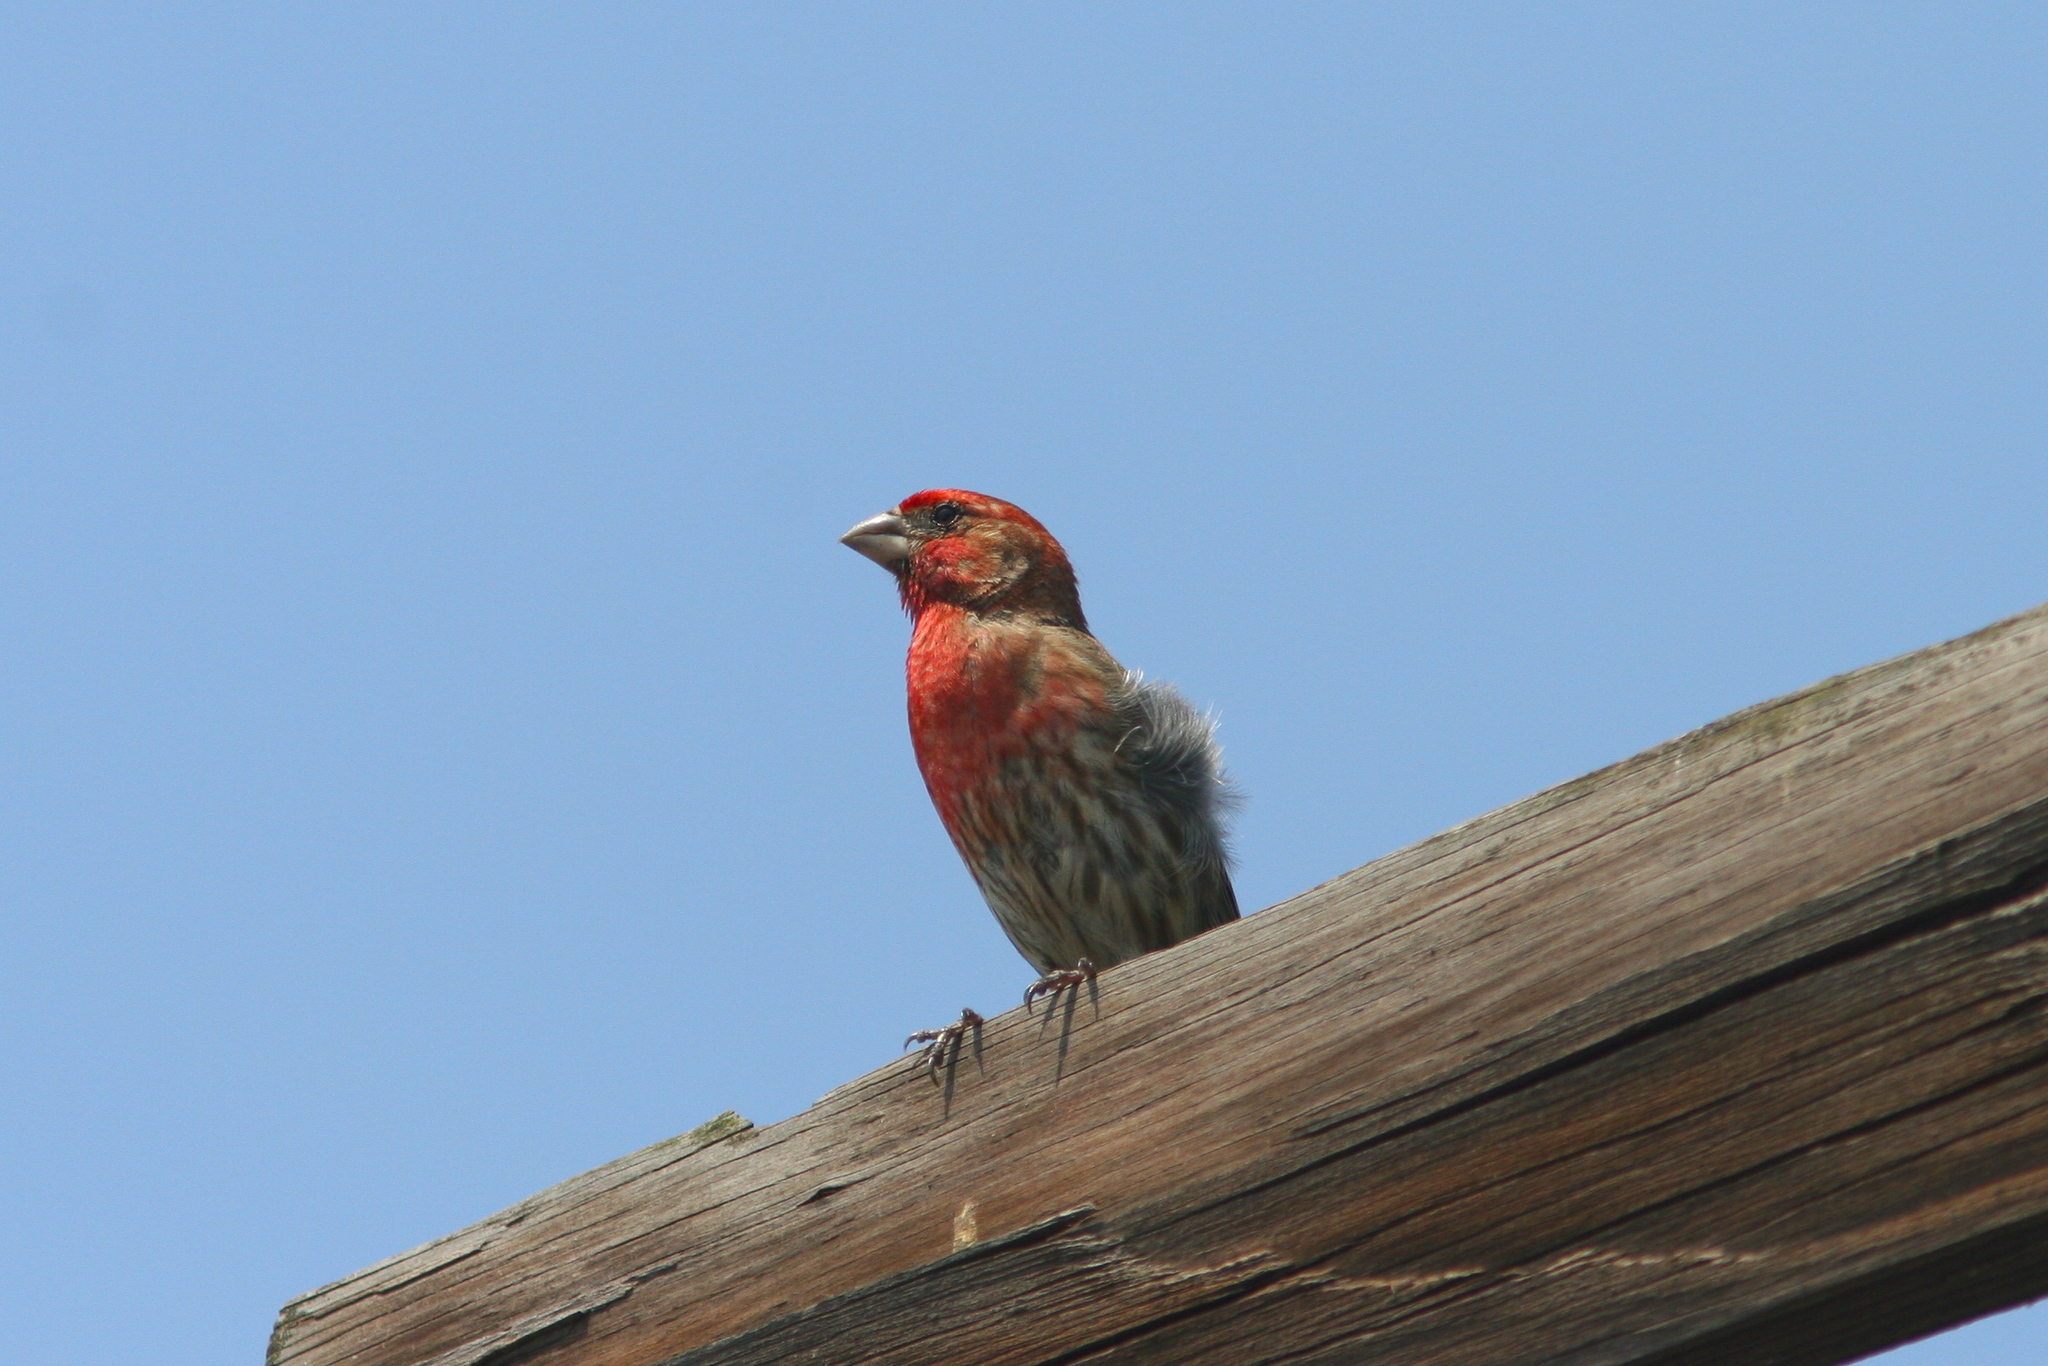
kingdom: Animalia
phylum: Chordata
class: Aves
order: Passeriformes
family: Fringillidae
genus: Haemorhous
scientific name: Haemorhous mexicanus
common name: House finch
